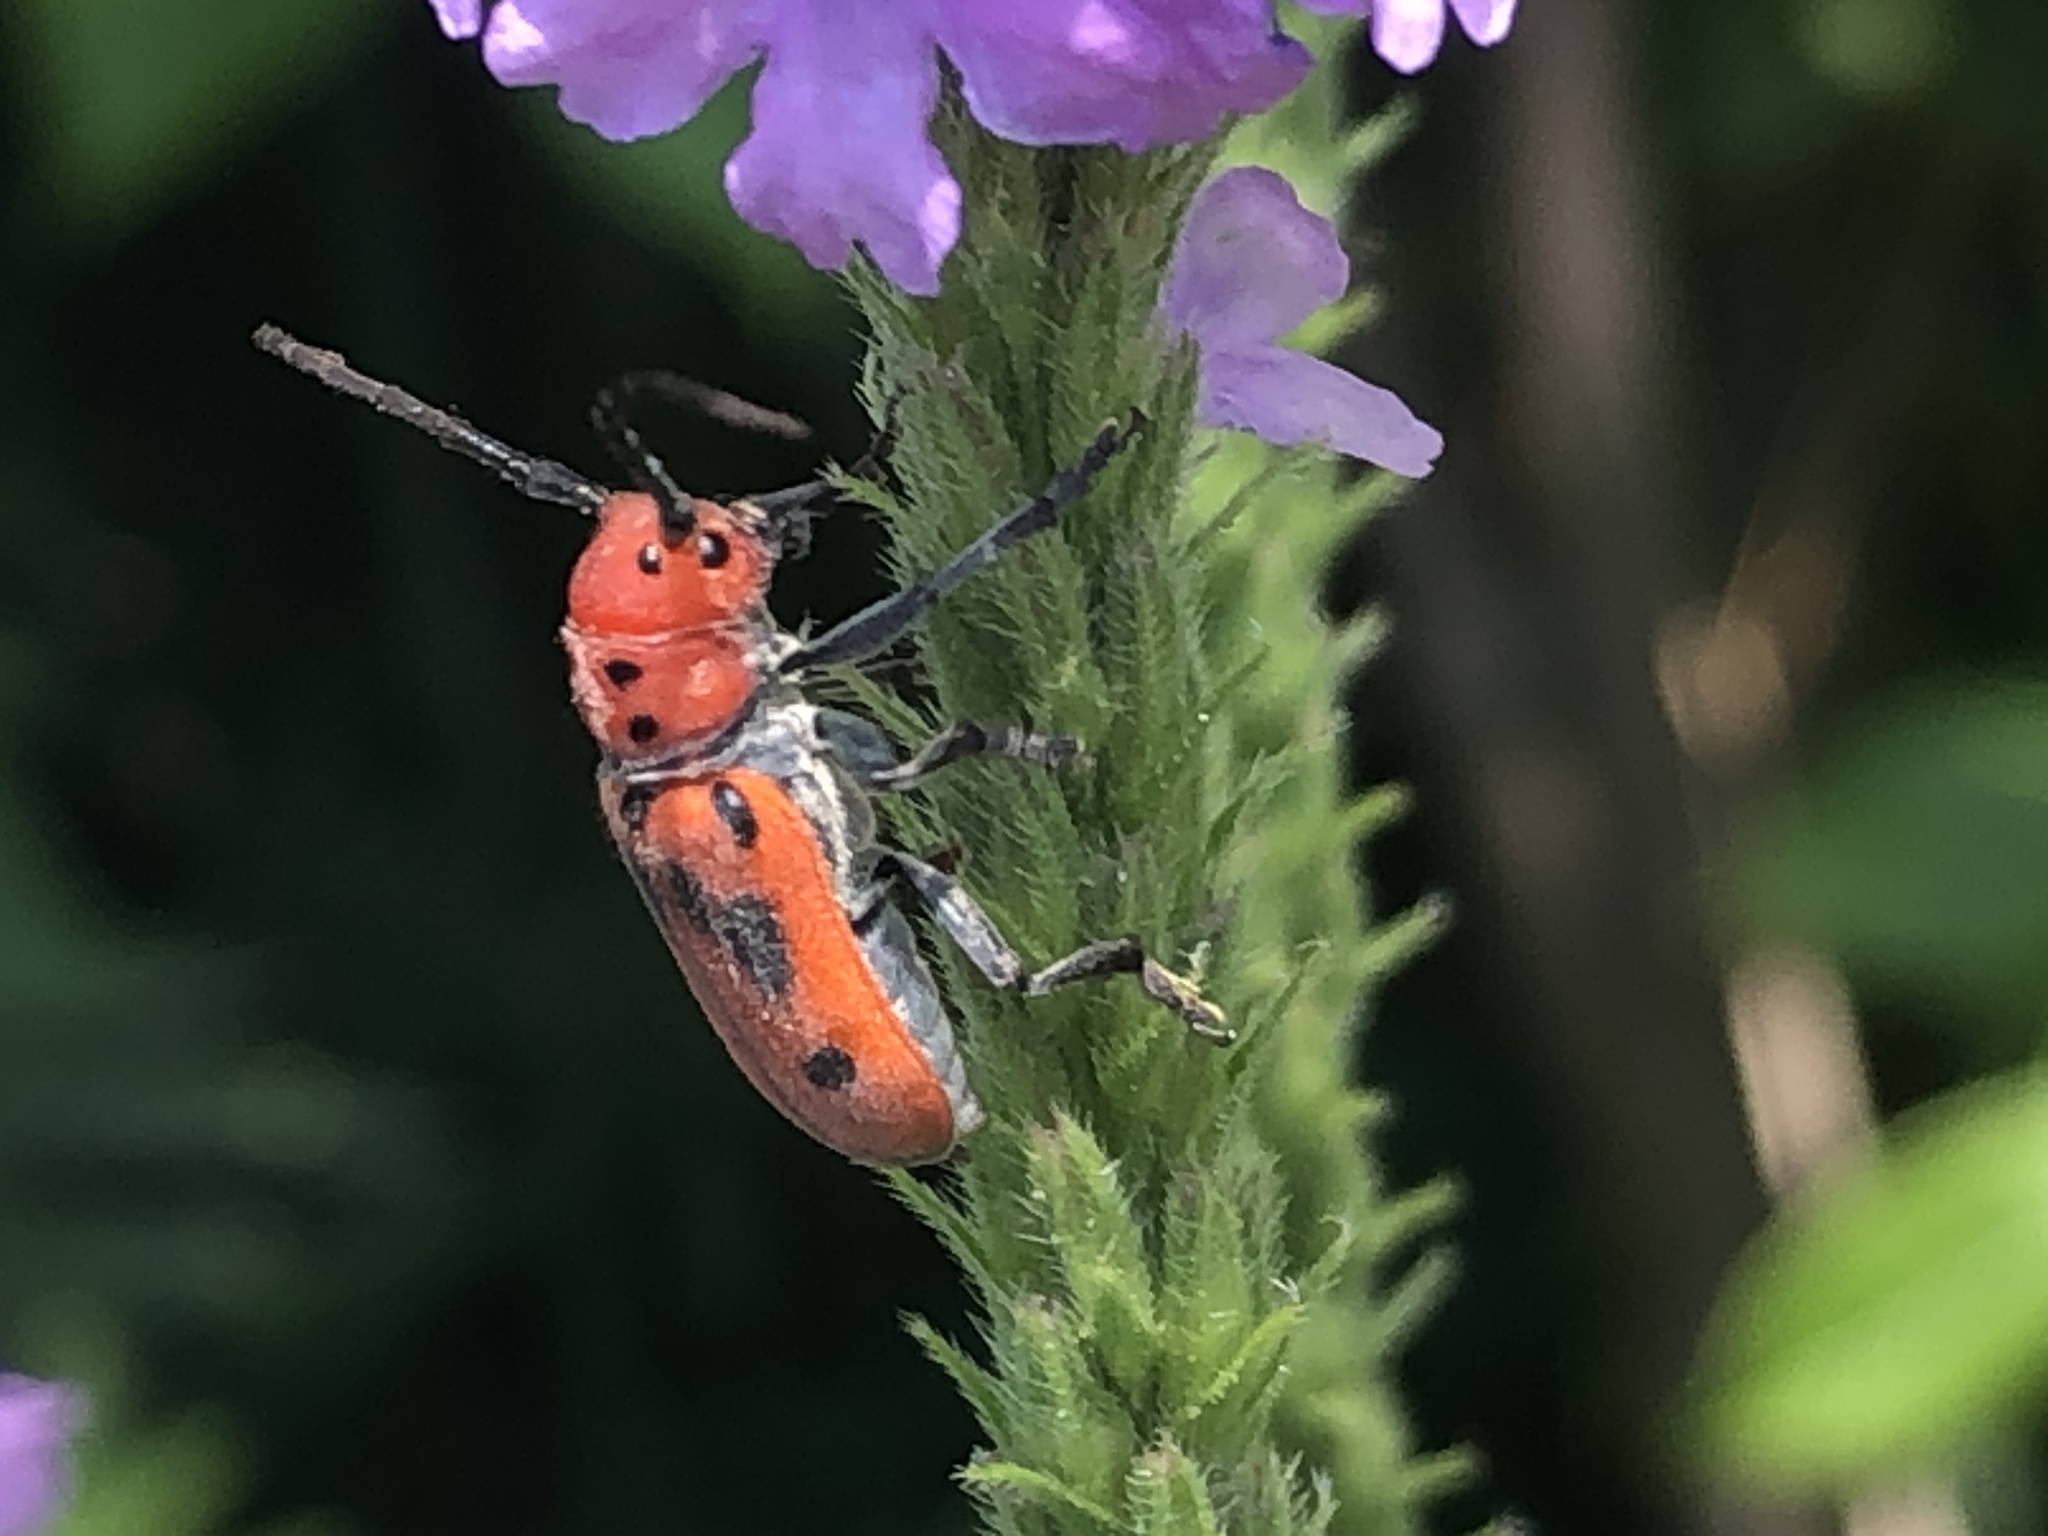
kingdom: Animalia
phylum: Arthropoda
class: Insecta
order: Coleoptera
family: Cerambycidae
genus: Tetraopes
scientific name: Tetraopes tetrophthalmus
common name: Red milkweed beetle
